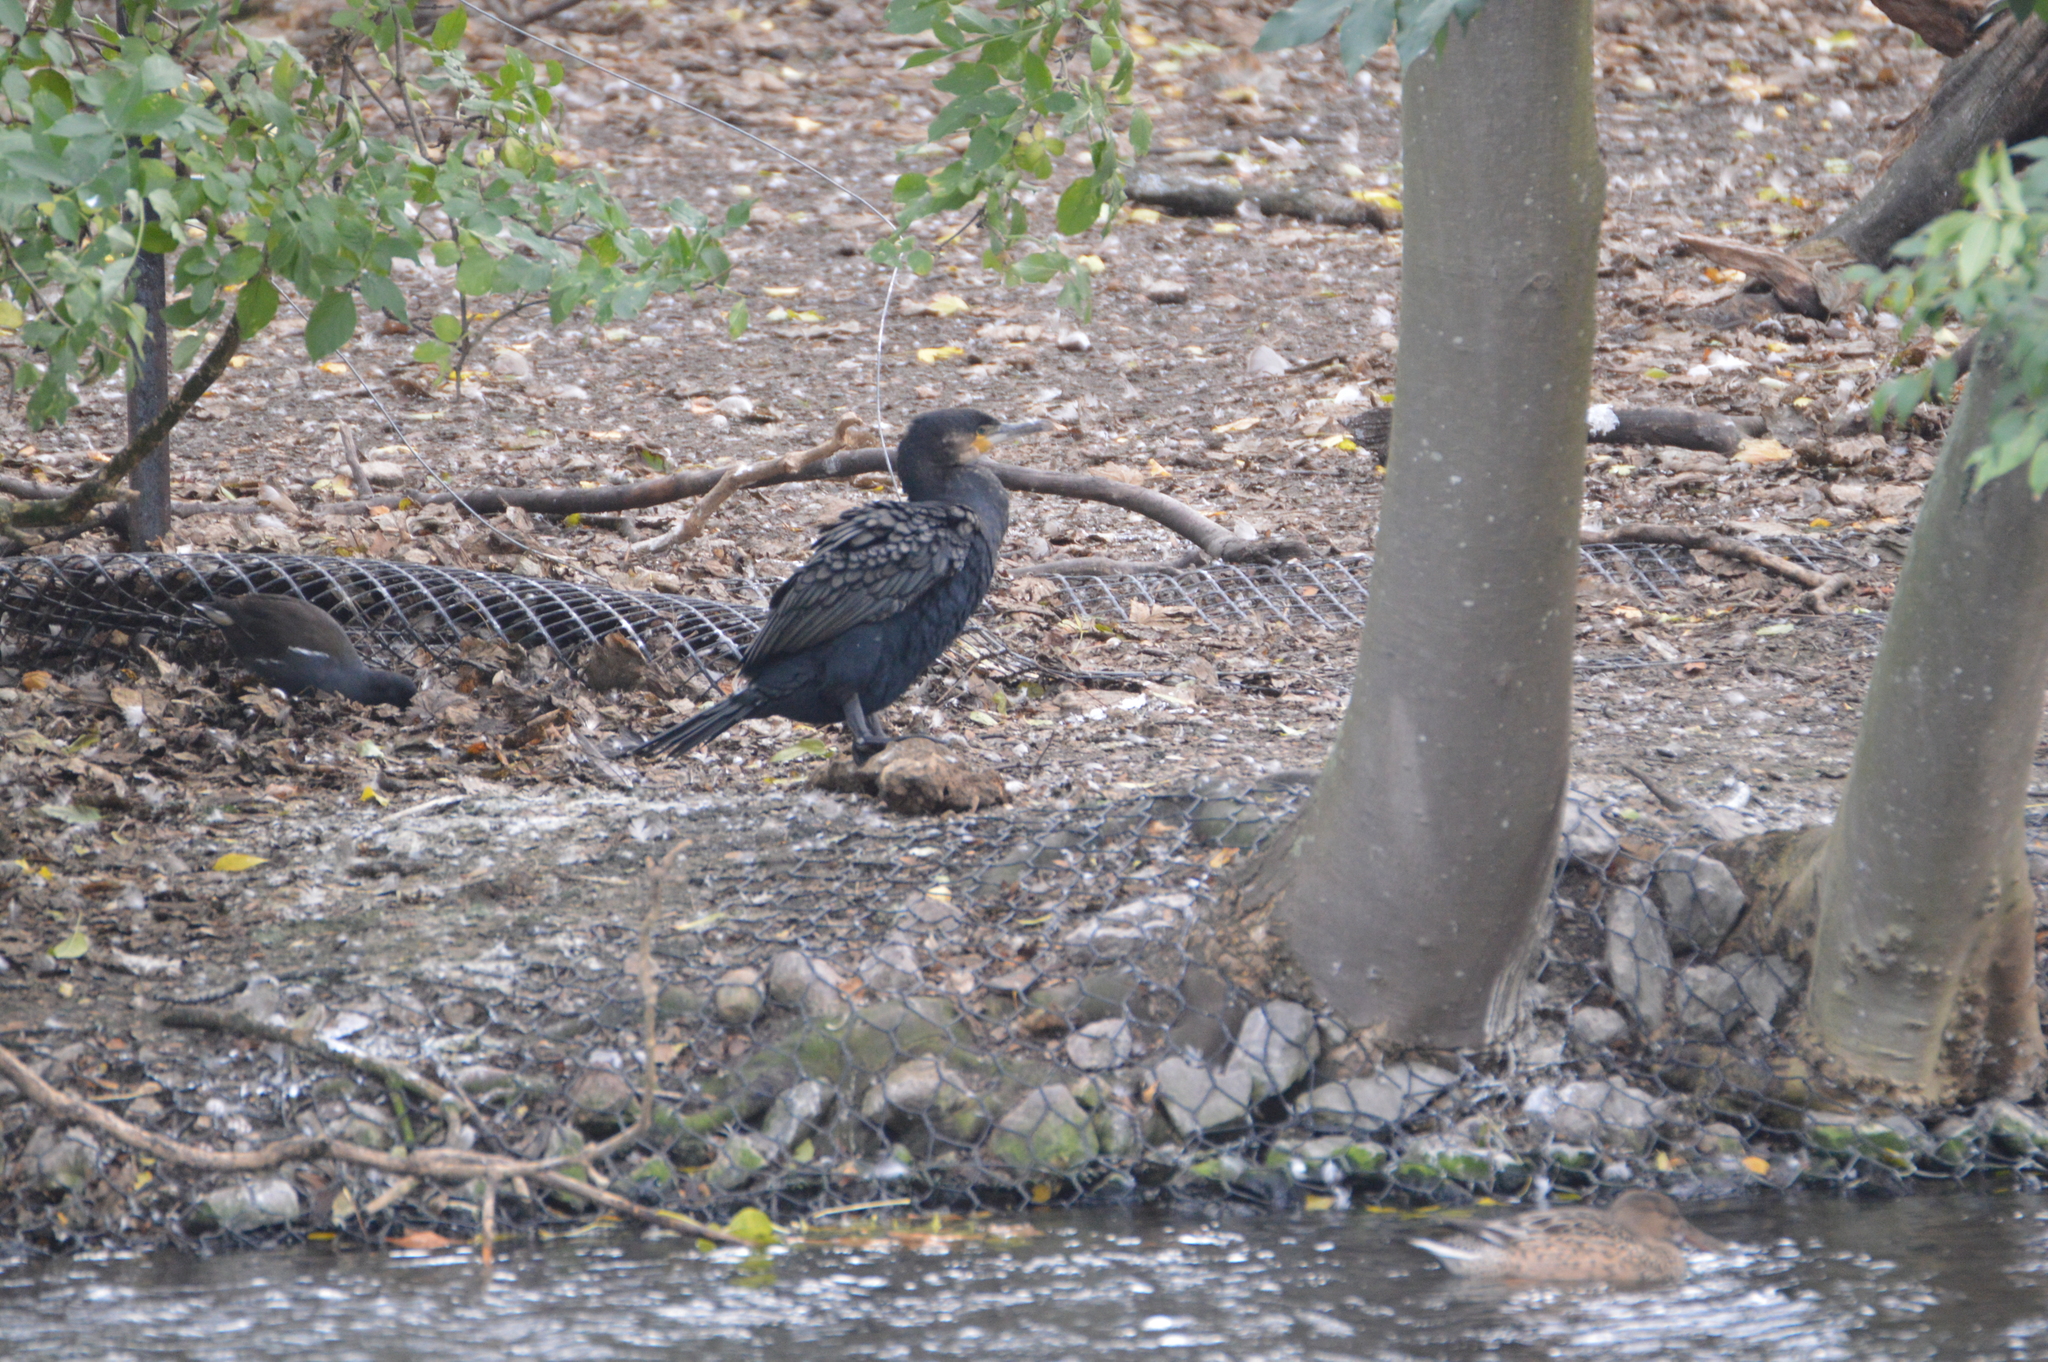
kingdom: Animalia
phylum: Chordata
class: Aves
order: Suliformes
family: Phalacrocoracidae
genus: Phalacrocorax
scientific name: Phalacrocorax carbo
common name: Great cormorant
